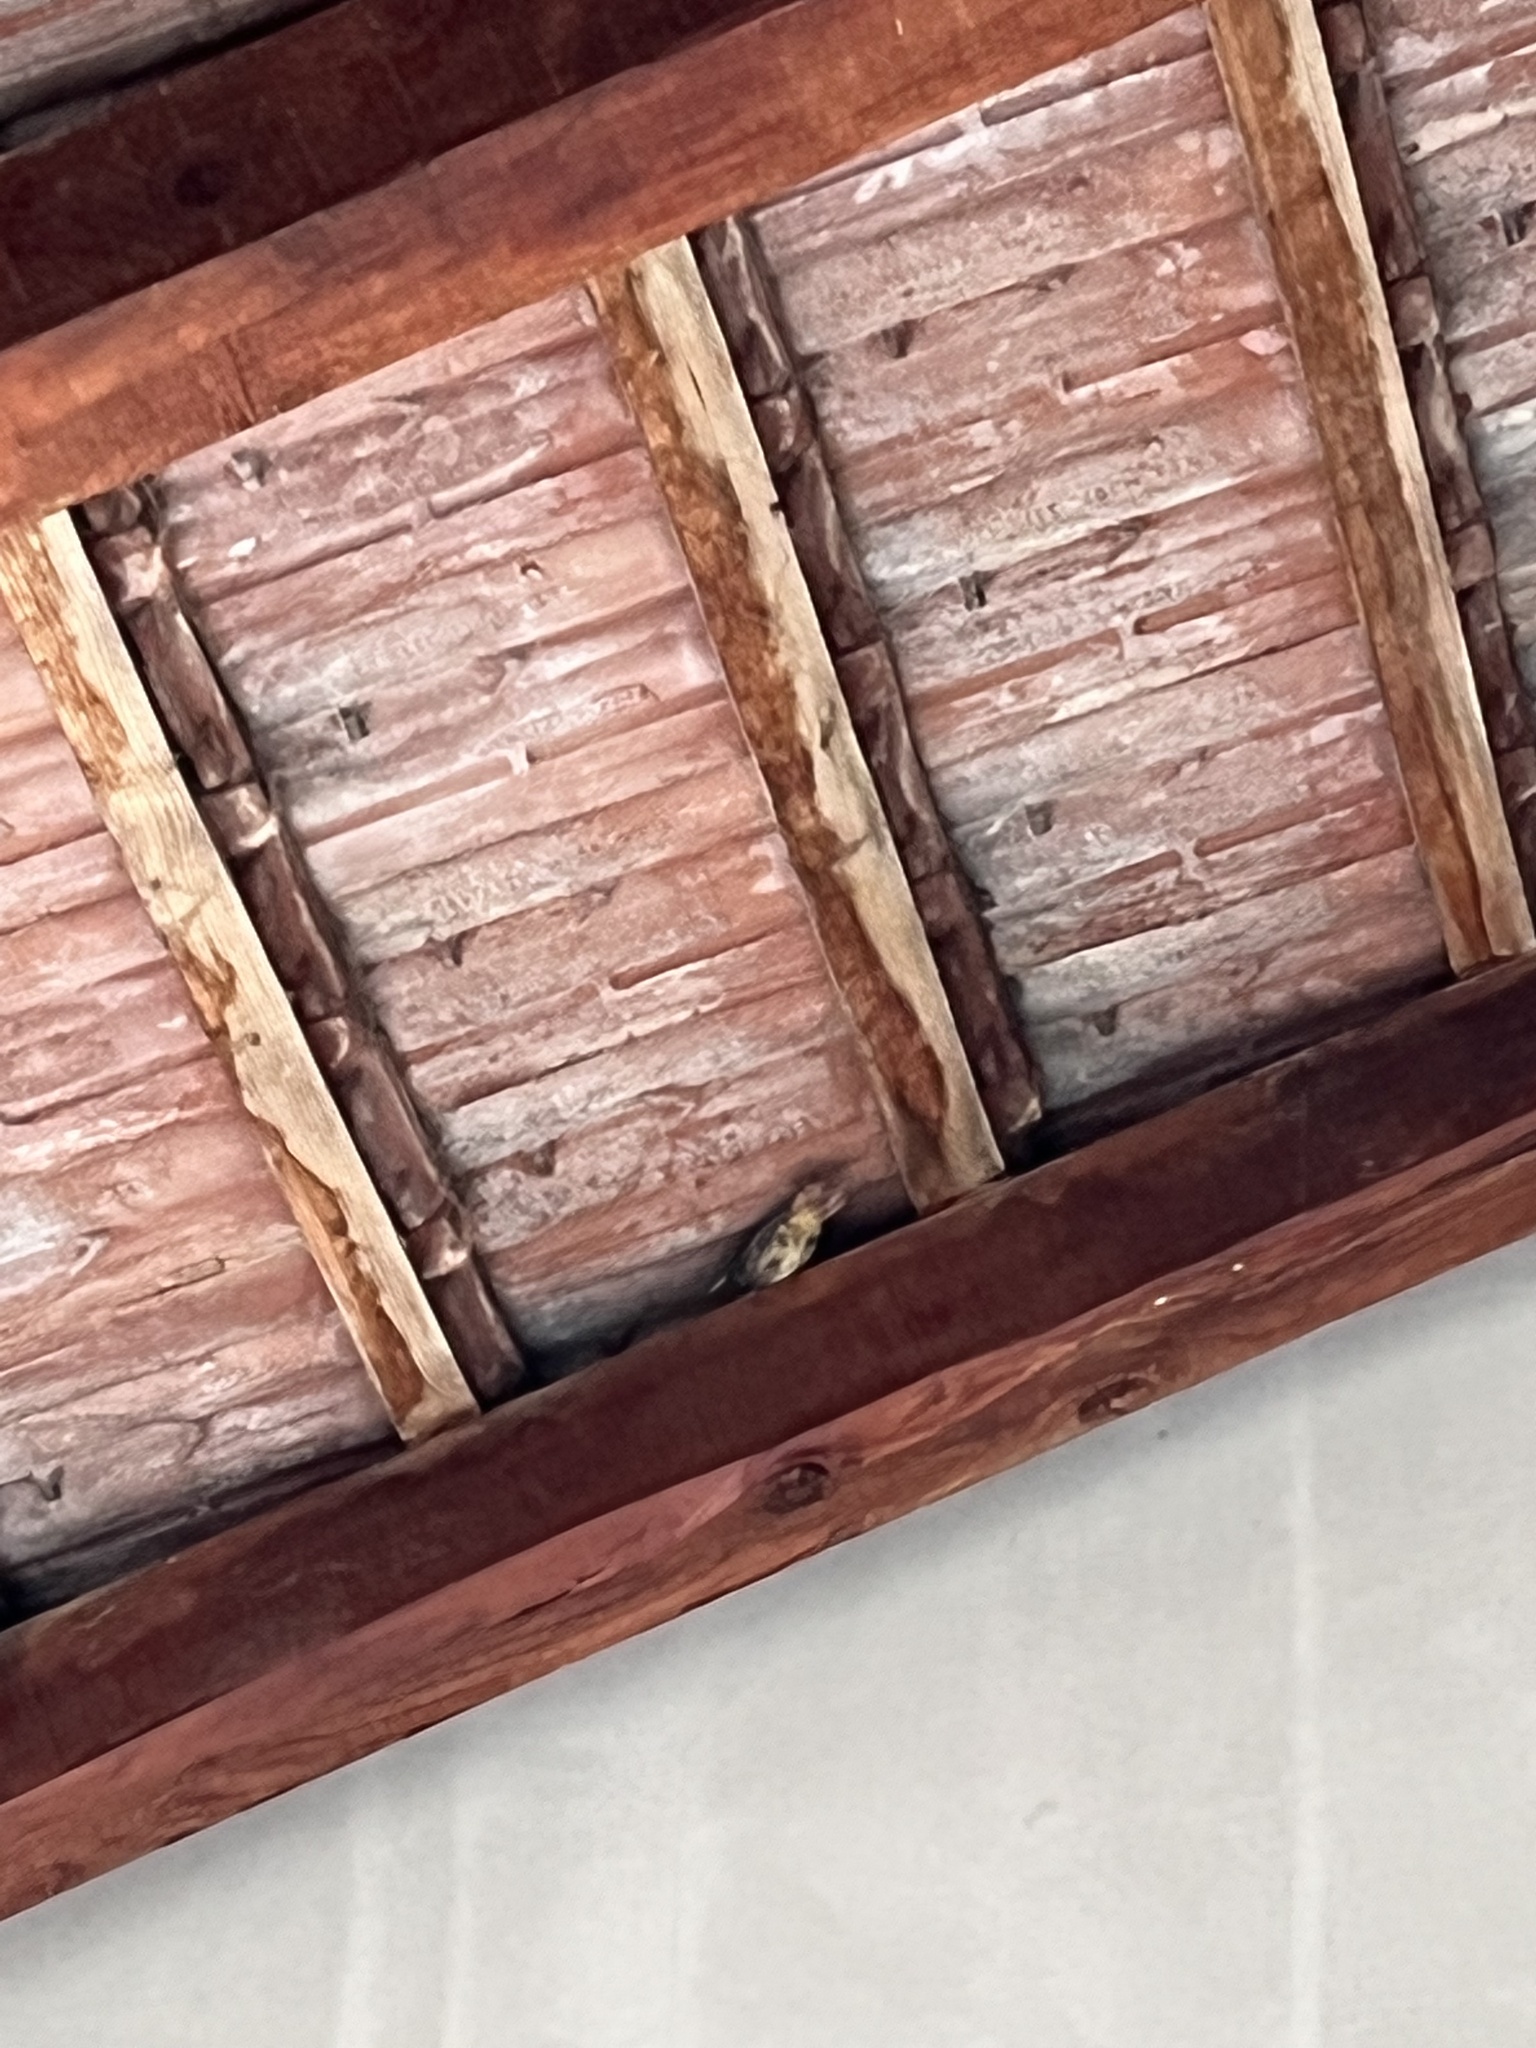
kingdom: Animalia
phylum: Chordata
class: Aves
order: Passeriformes
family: Muscicapidae
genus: Phoenicurus
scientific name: Phoenicurus ochruros
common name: Black redstart
